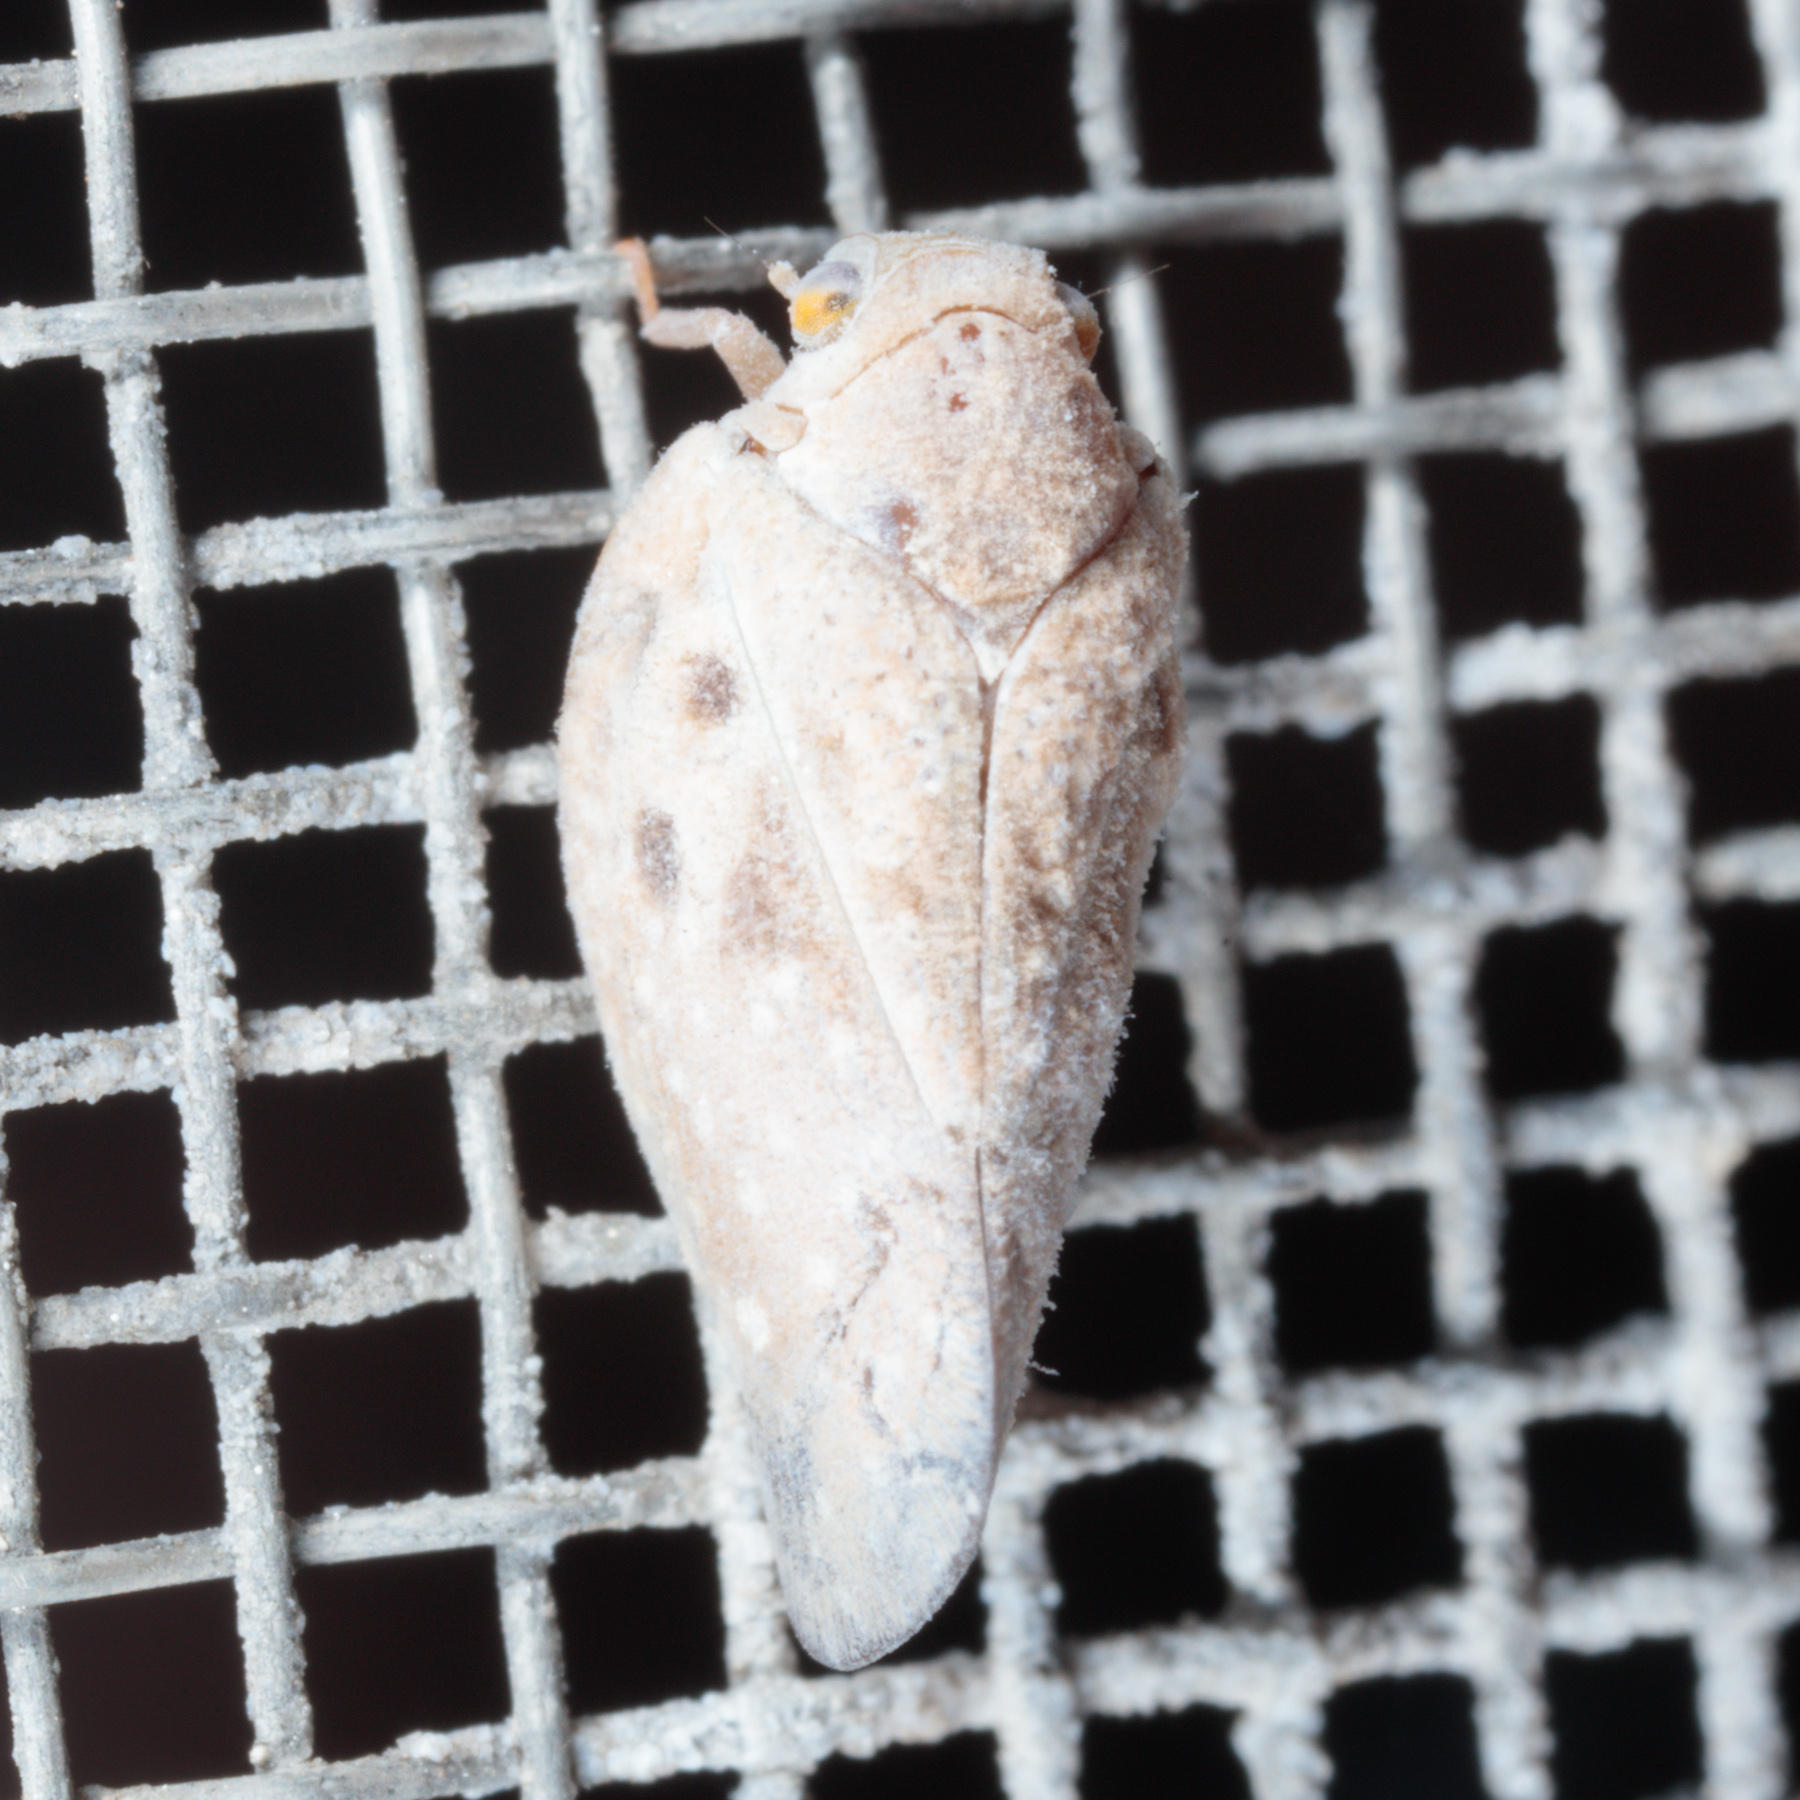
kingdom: Animalia
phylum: Arthropoda
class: Insecta
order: Hemiptera
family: Flatidae
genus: Metcalfa
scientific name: Metcalfa pruinosa
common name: Citrus flatid planthopper
